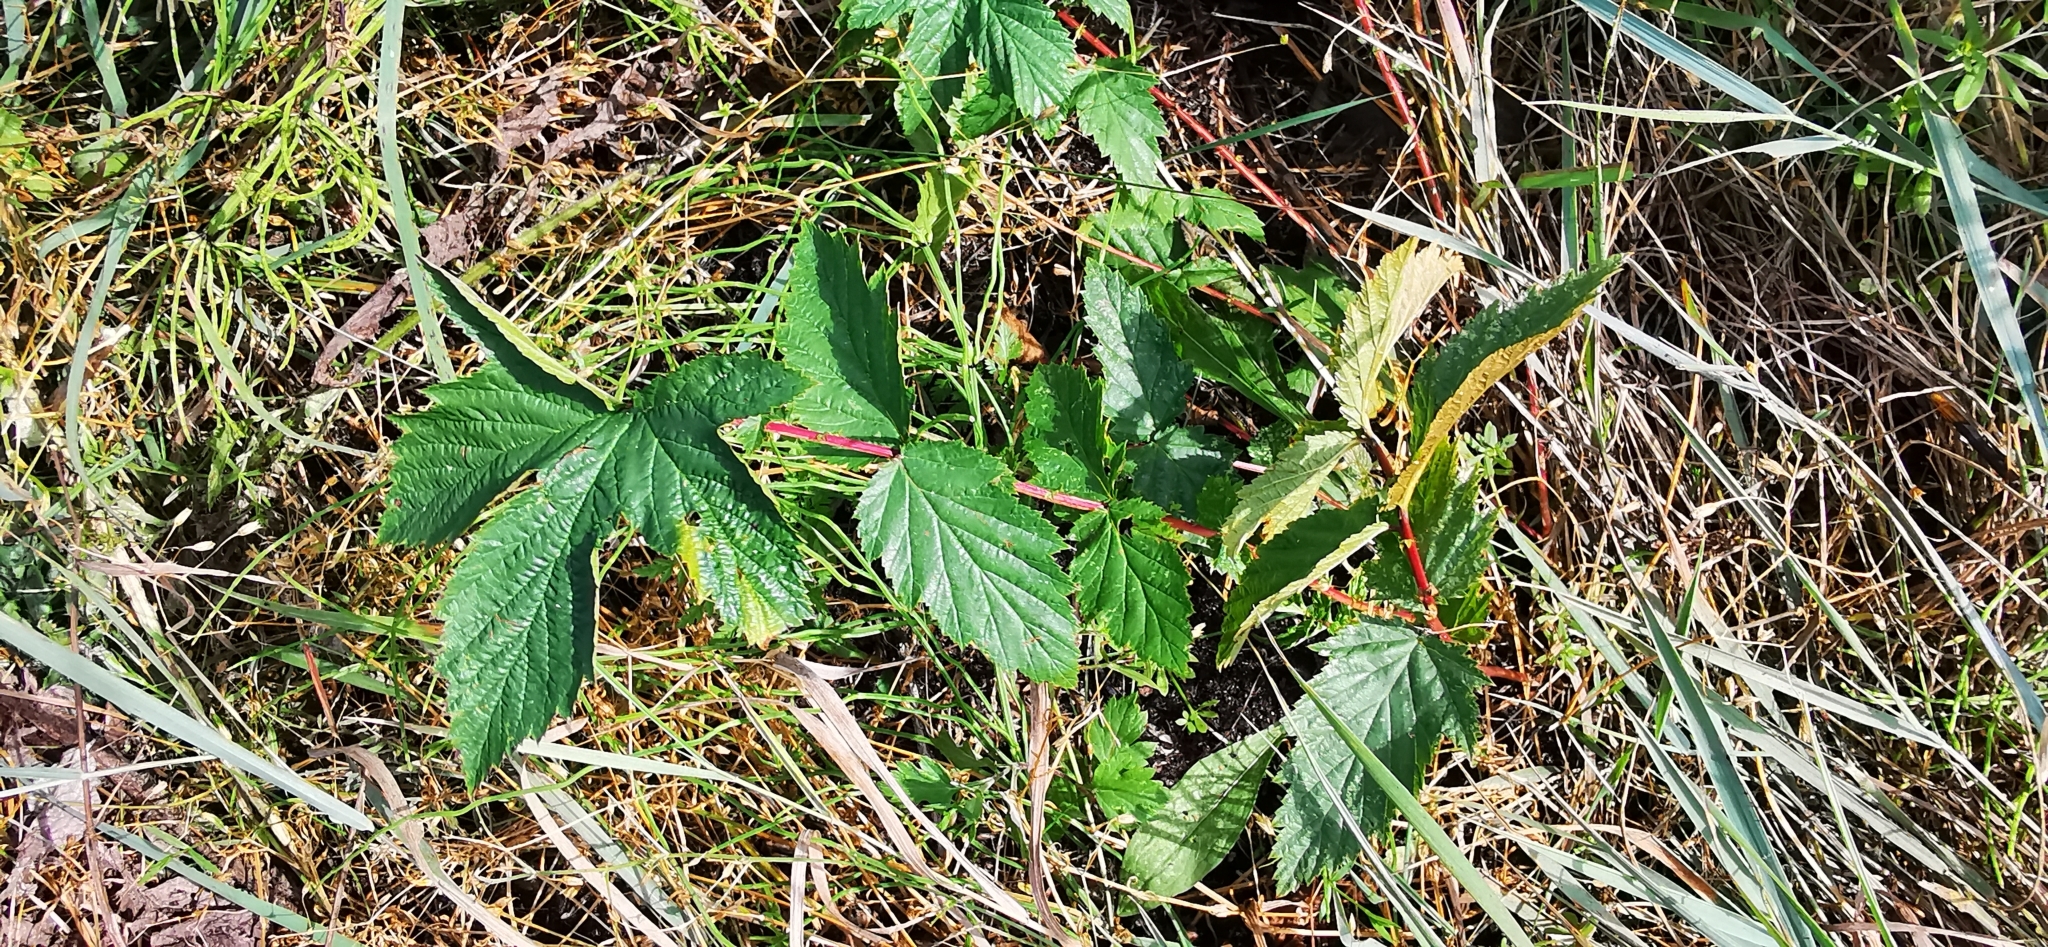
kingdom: Plantae
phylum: Tracheophyta
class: Magnoliopsida
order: Rosales
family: Rosaceae
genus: Filipendula
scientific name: Filipendula ulmaria
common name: Meadowsweet
